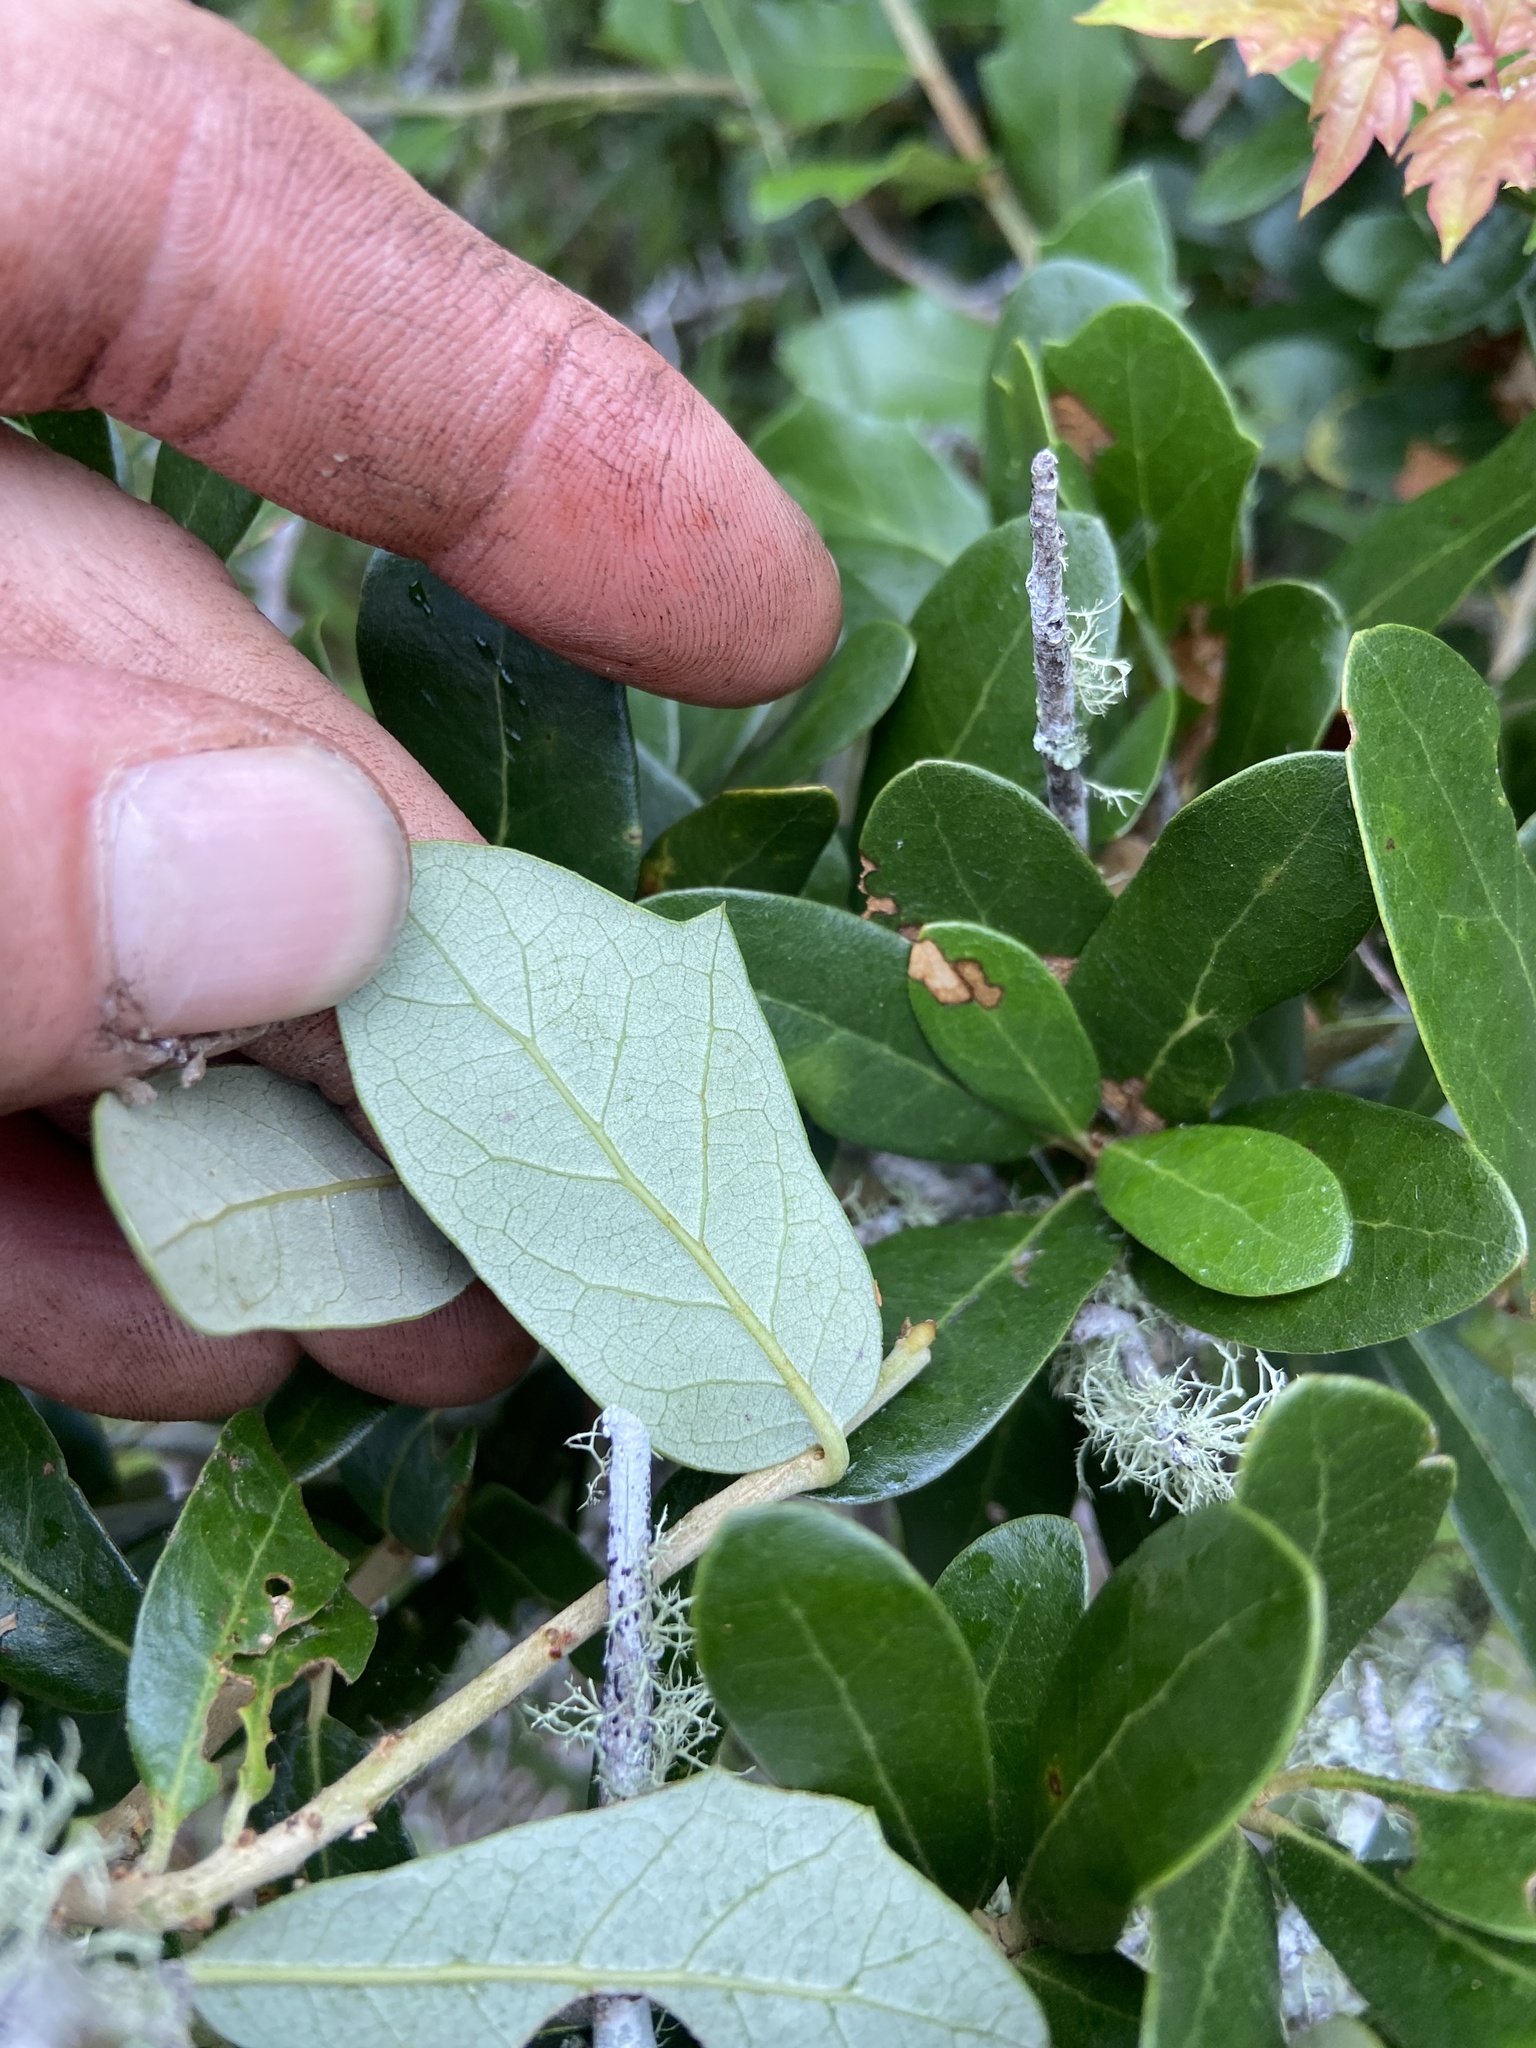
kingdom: Plantae
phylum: Tracheophyta
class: Magnoliopsida
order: Fagales
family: Fagaceae
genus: Quercus
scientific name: Quercus virginiana
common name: Southern live oak
